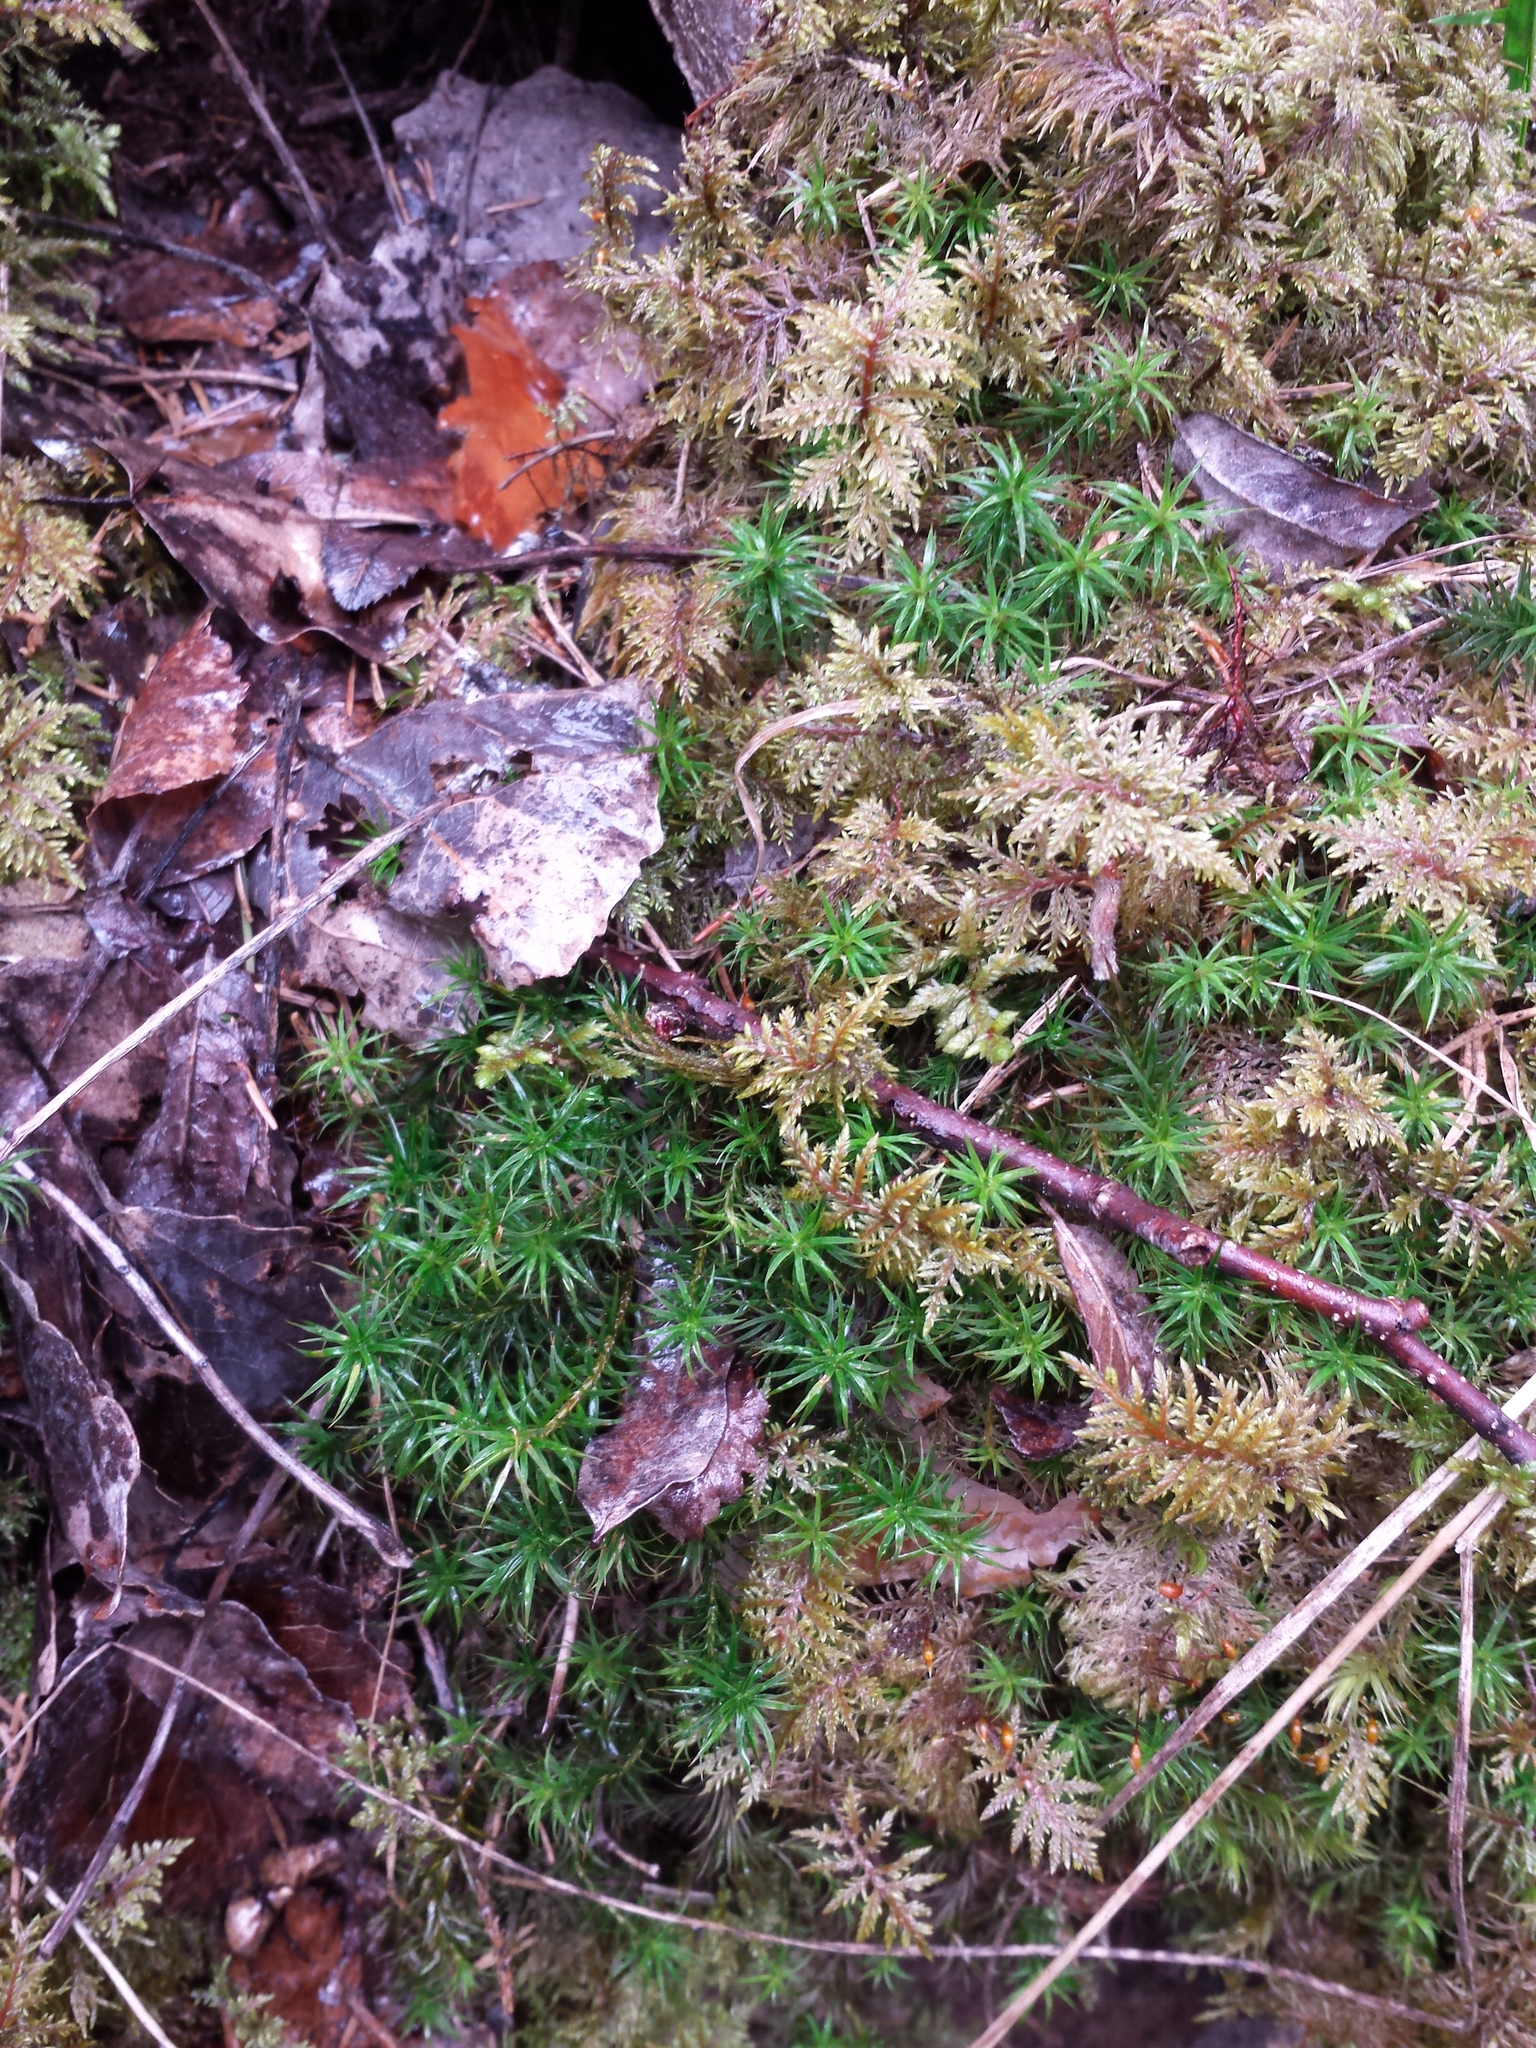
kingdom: Plantae
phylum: Bryophyta
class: Bryopsida
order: Hypnales
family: Hylocomiaceae
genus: Hylocomium
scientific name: Hylocomium splendens
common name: Stairstep moss
